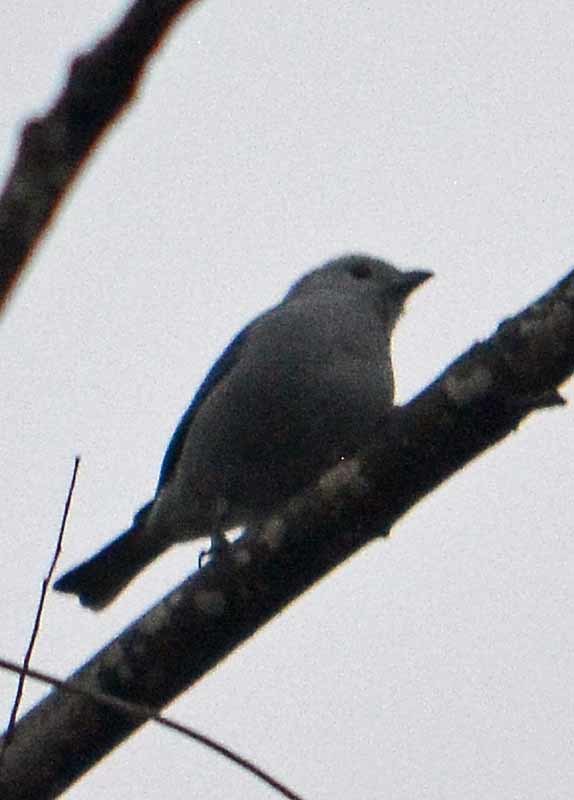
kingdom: Animalia
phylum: Chordata
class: Aves
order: Passeriformes
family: Thraupidae
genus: Thraupis
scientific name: Thraupis episcopus
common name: Blue-grey tanager
